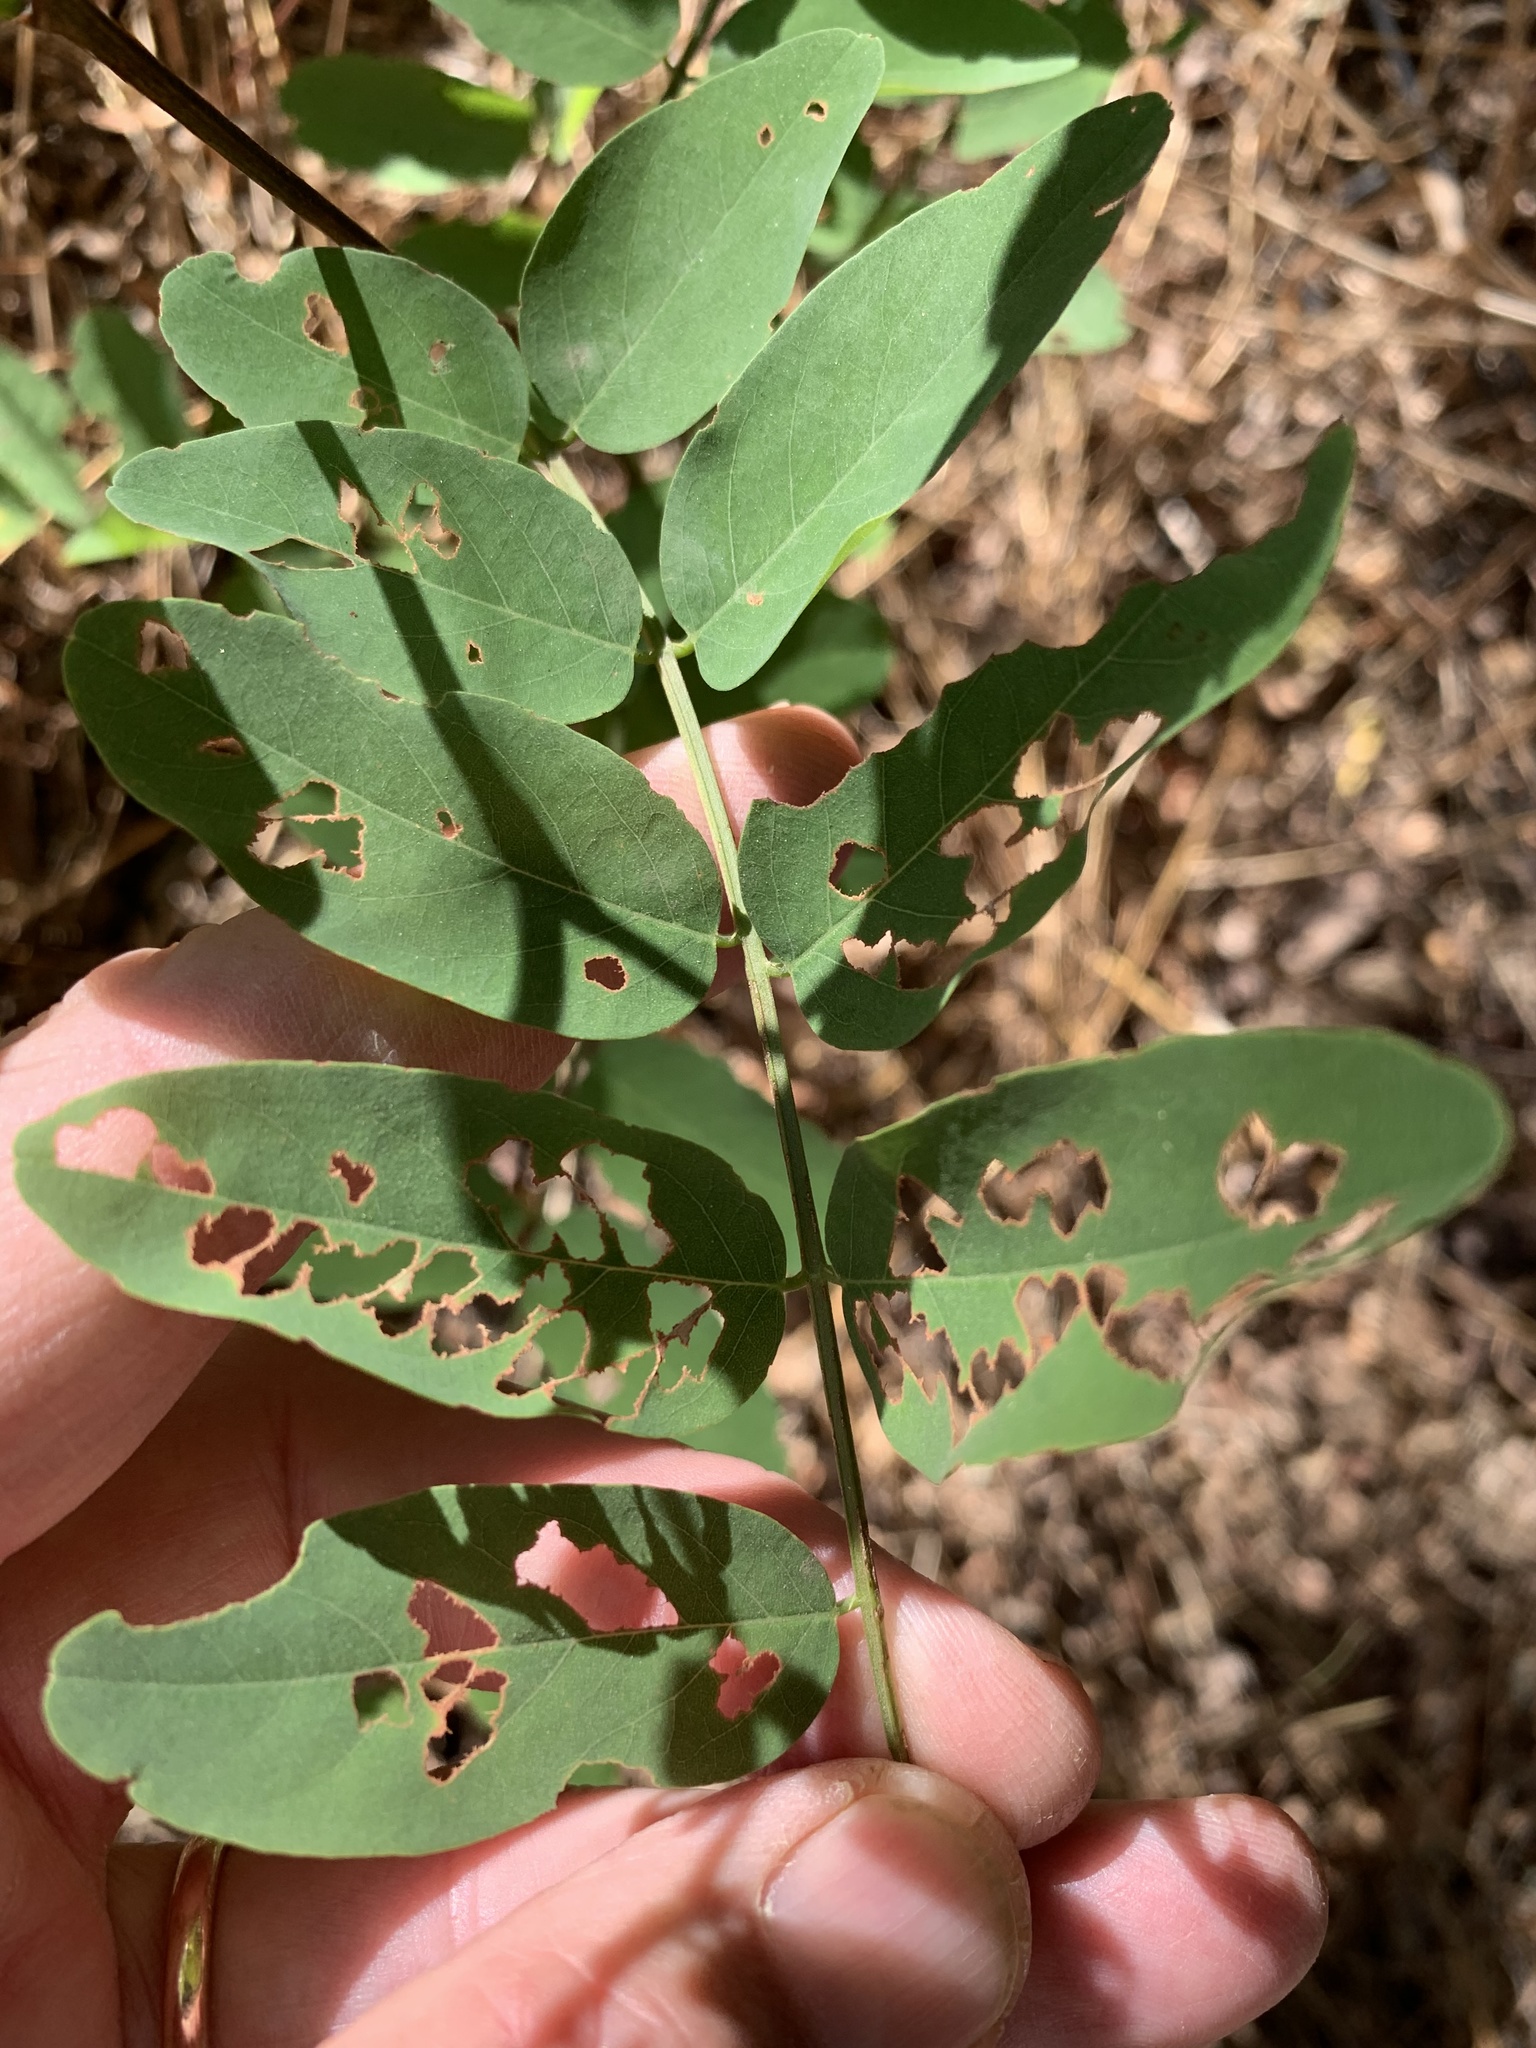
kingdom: Plantae
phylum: Tracheophyta
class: Magnoliopsida
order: Fabales
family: Fabaceae
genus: Robinia
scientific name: Robinia pseudoacacia
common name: Black locust
